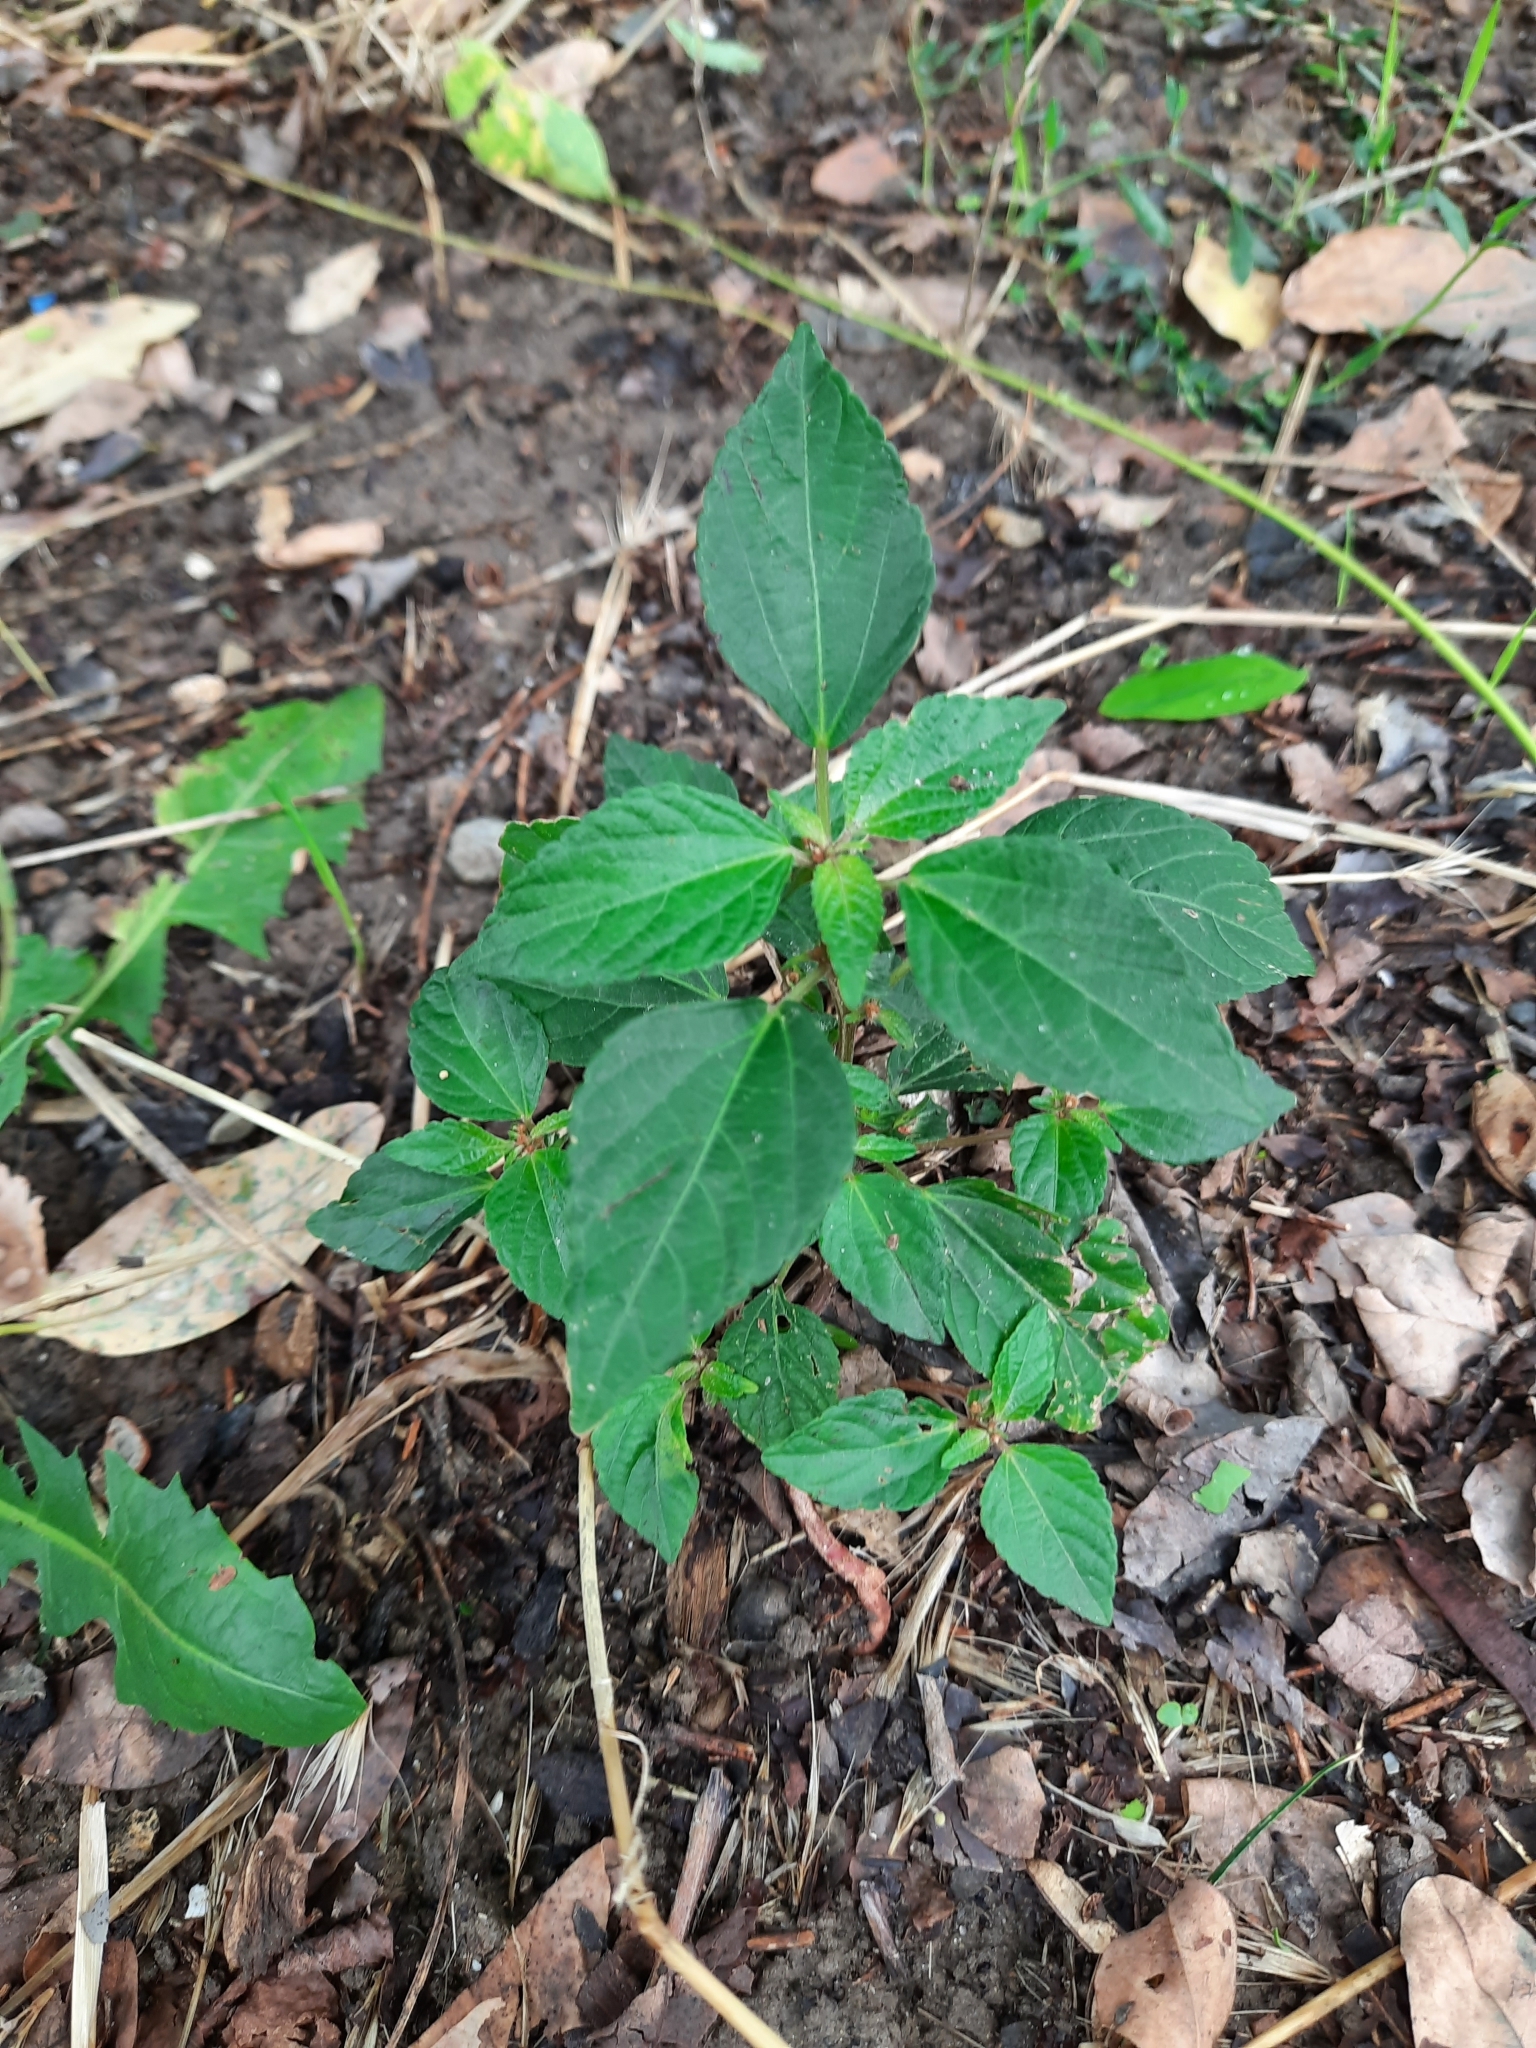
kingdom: Plantae
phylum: Tracheophyta
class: Magnoliopsida
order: Malpighiales
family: Euphorbiaceae
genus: Acalypha
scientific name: Acalypha australis
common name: Asian copperleaf
